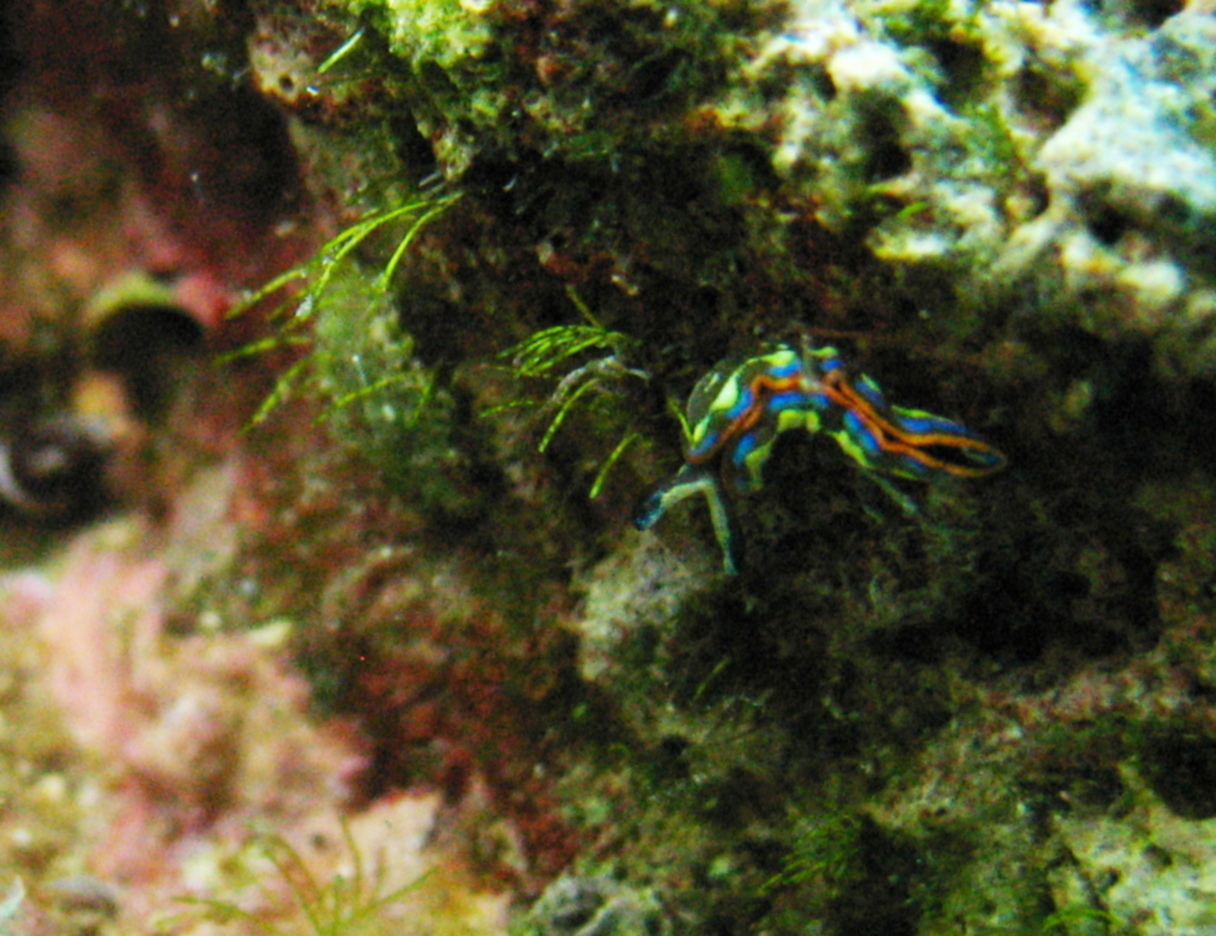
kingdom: Animalia
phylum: Mollusca
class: Gastropoda
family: Plakobranchidae
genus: Thuridilla
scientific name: Thuridilla hopei
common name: Splendid elysia
